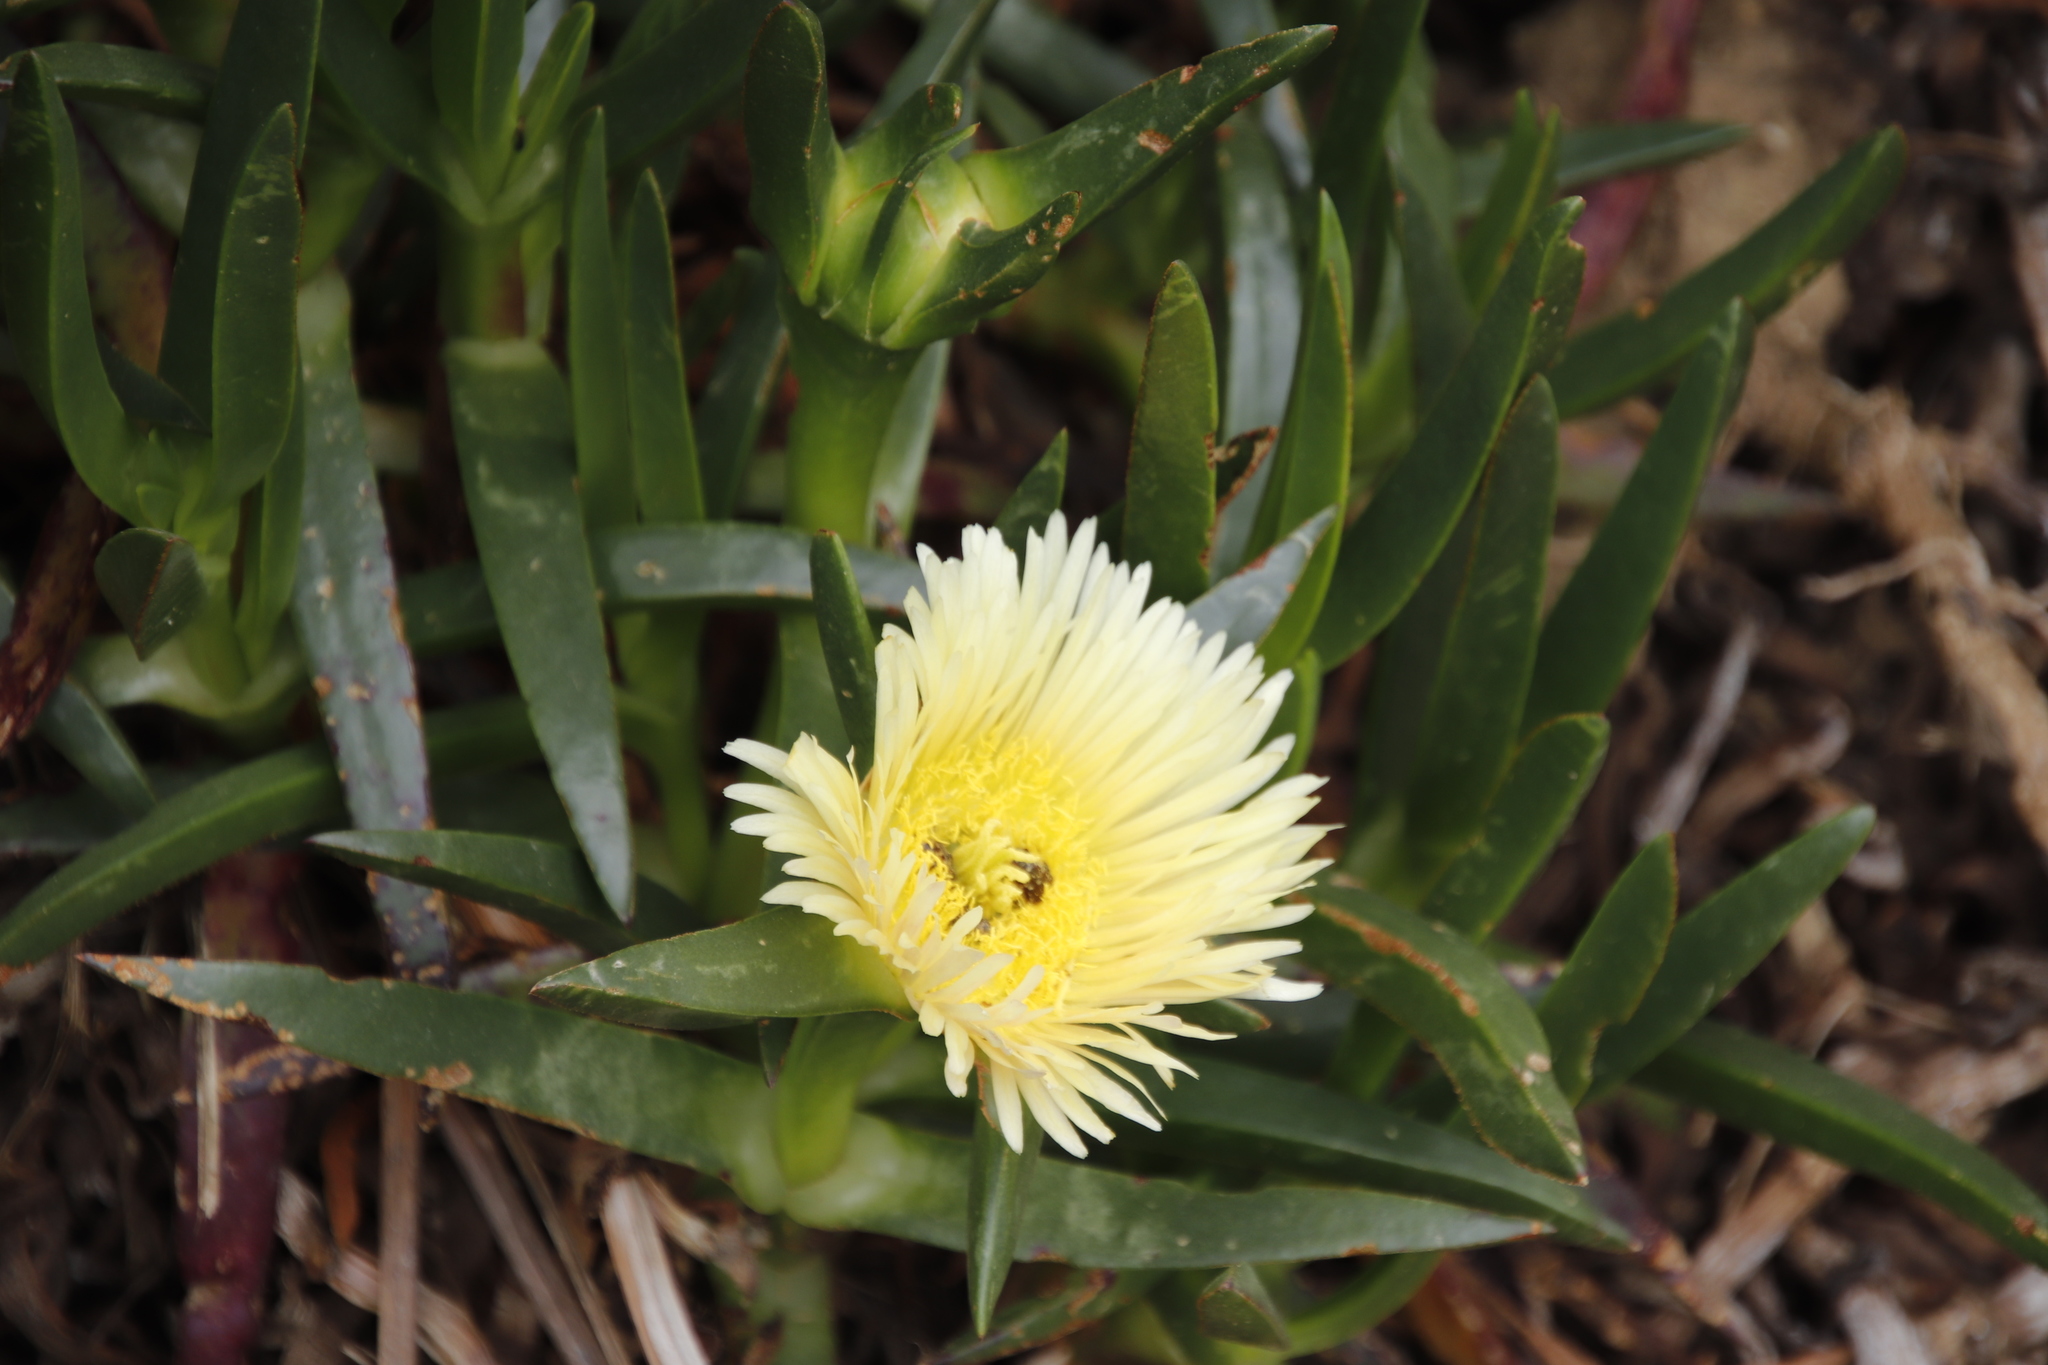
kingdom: Plantae
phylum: Tracheophyta
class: Magnoliopsida
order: Caryophyllales
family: Aizoaceae
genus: Carpobrotus
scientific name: Carpobrotus edulis
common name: Hottentot-fig
